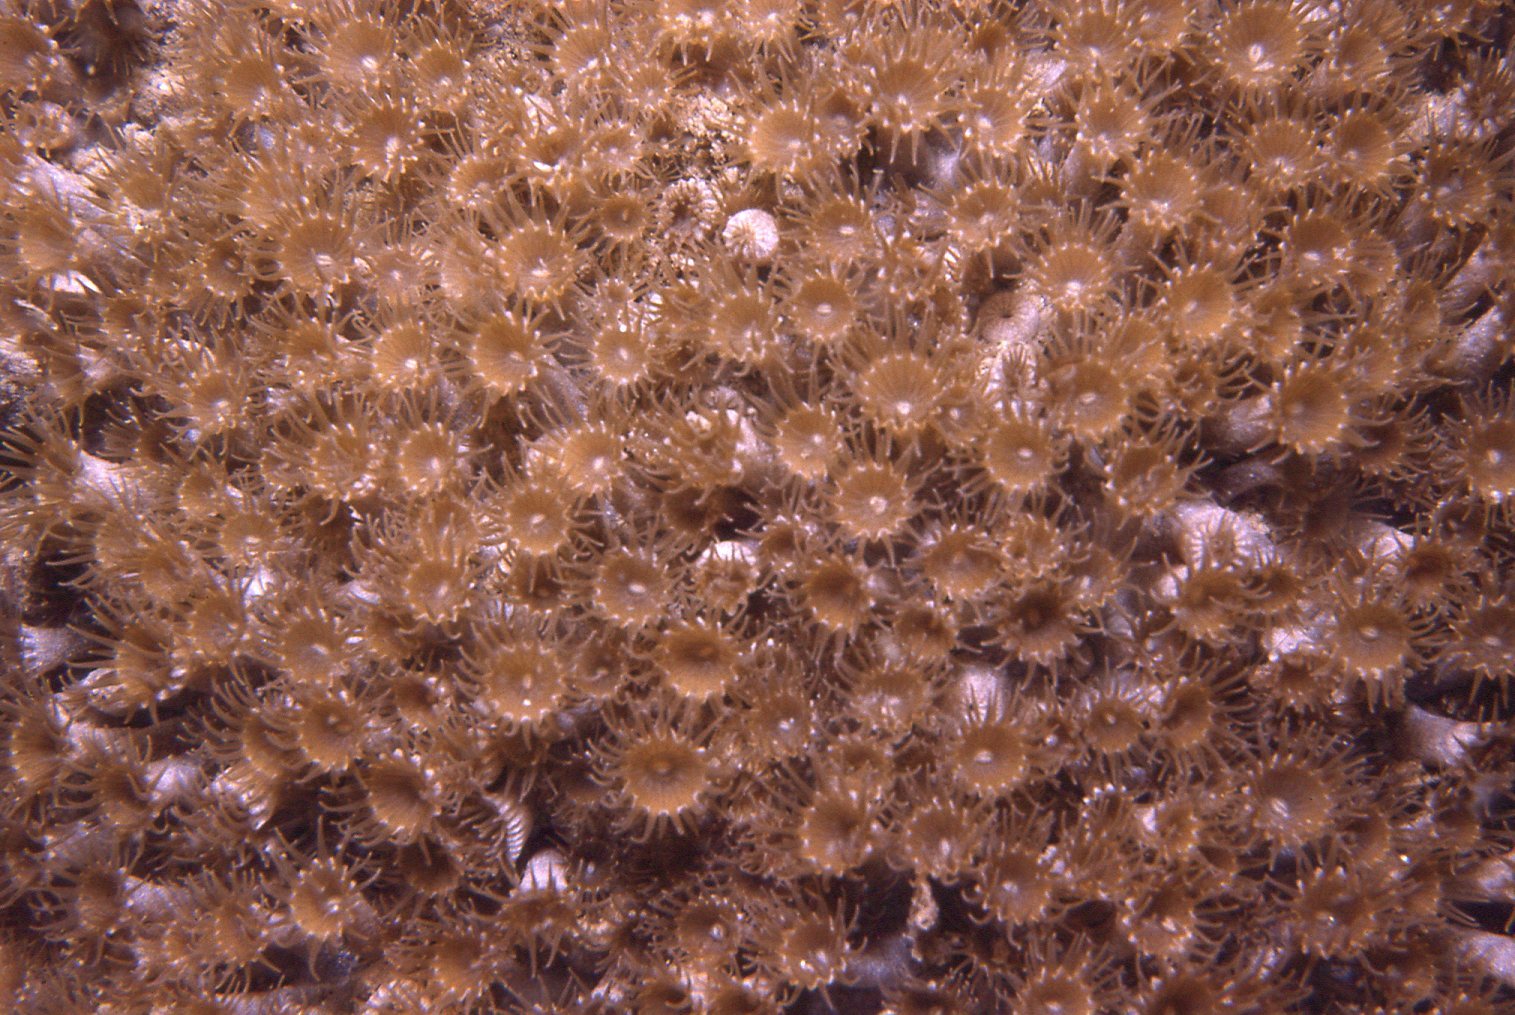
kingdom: Animalia
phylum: Cnidaria
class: Anthozoa
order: Zoantharia
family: Epizoanthidae
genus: Epizoanthus
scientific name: Epizoanthus sabulosus
